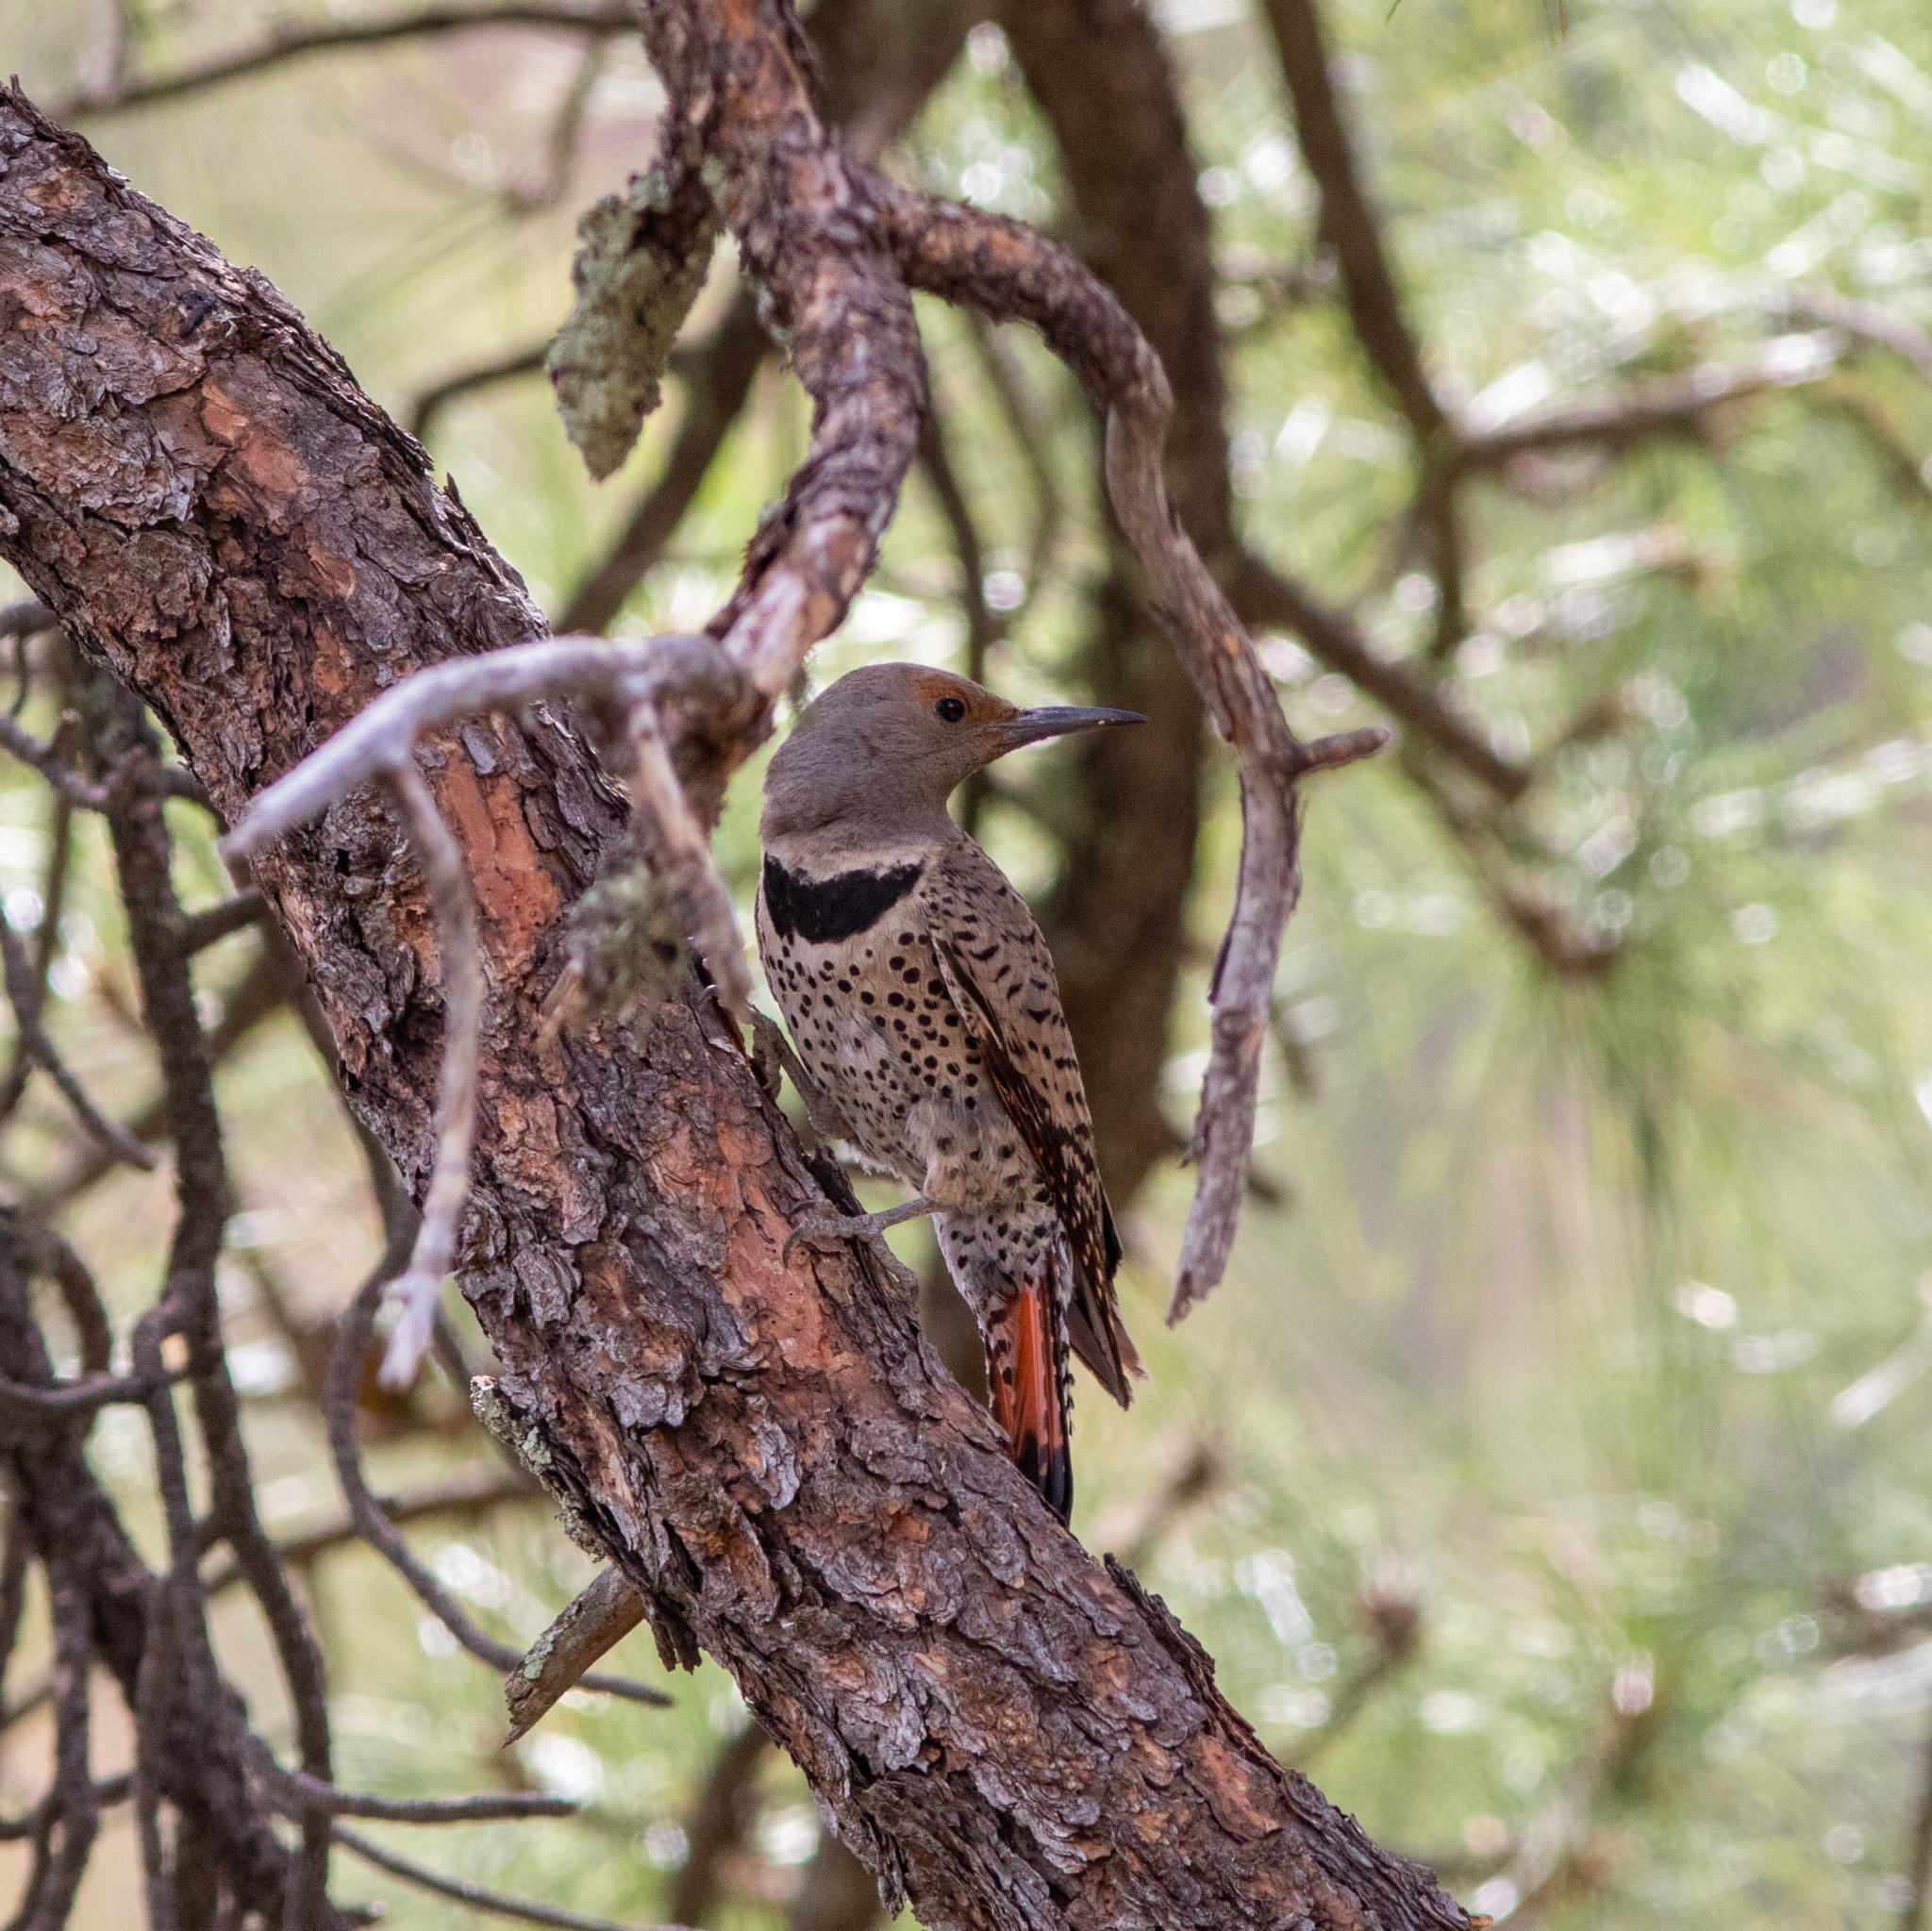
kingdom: Animalia
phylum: Chordata
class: Aves
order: Piciformes
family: Picidae
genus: Colaptes
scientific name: Colaptes auratus
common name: Northern flicker
